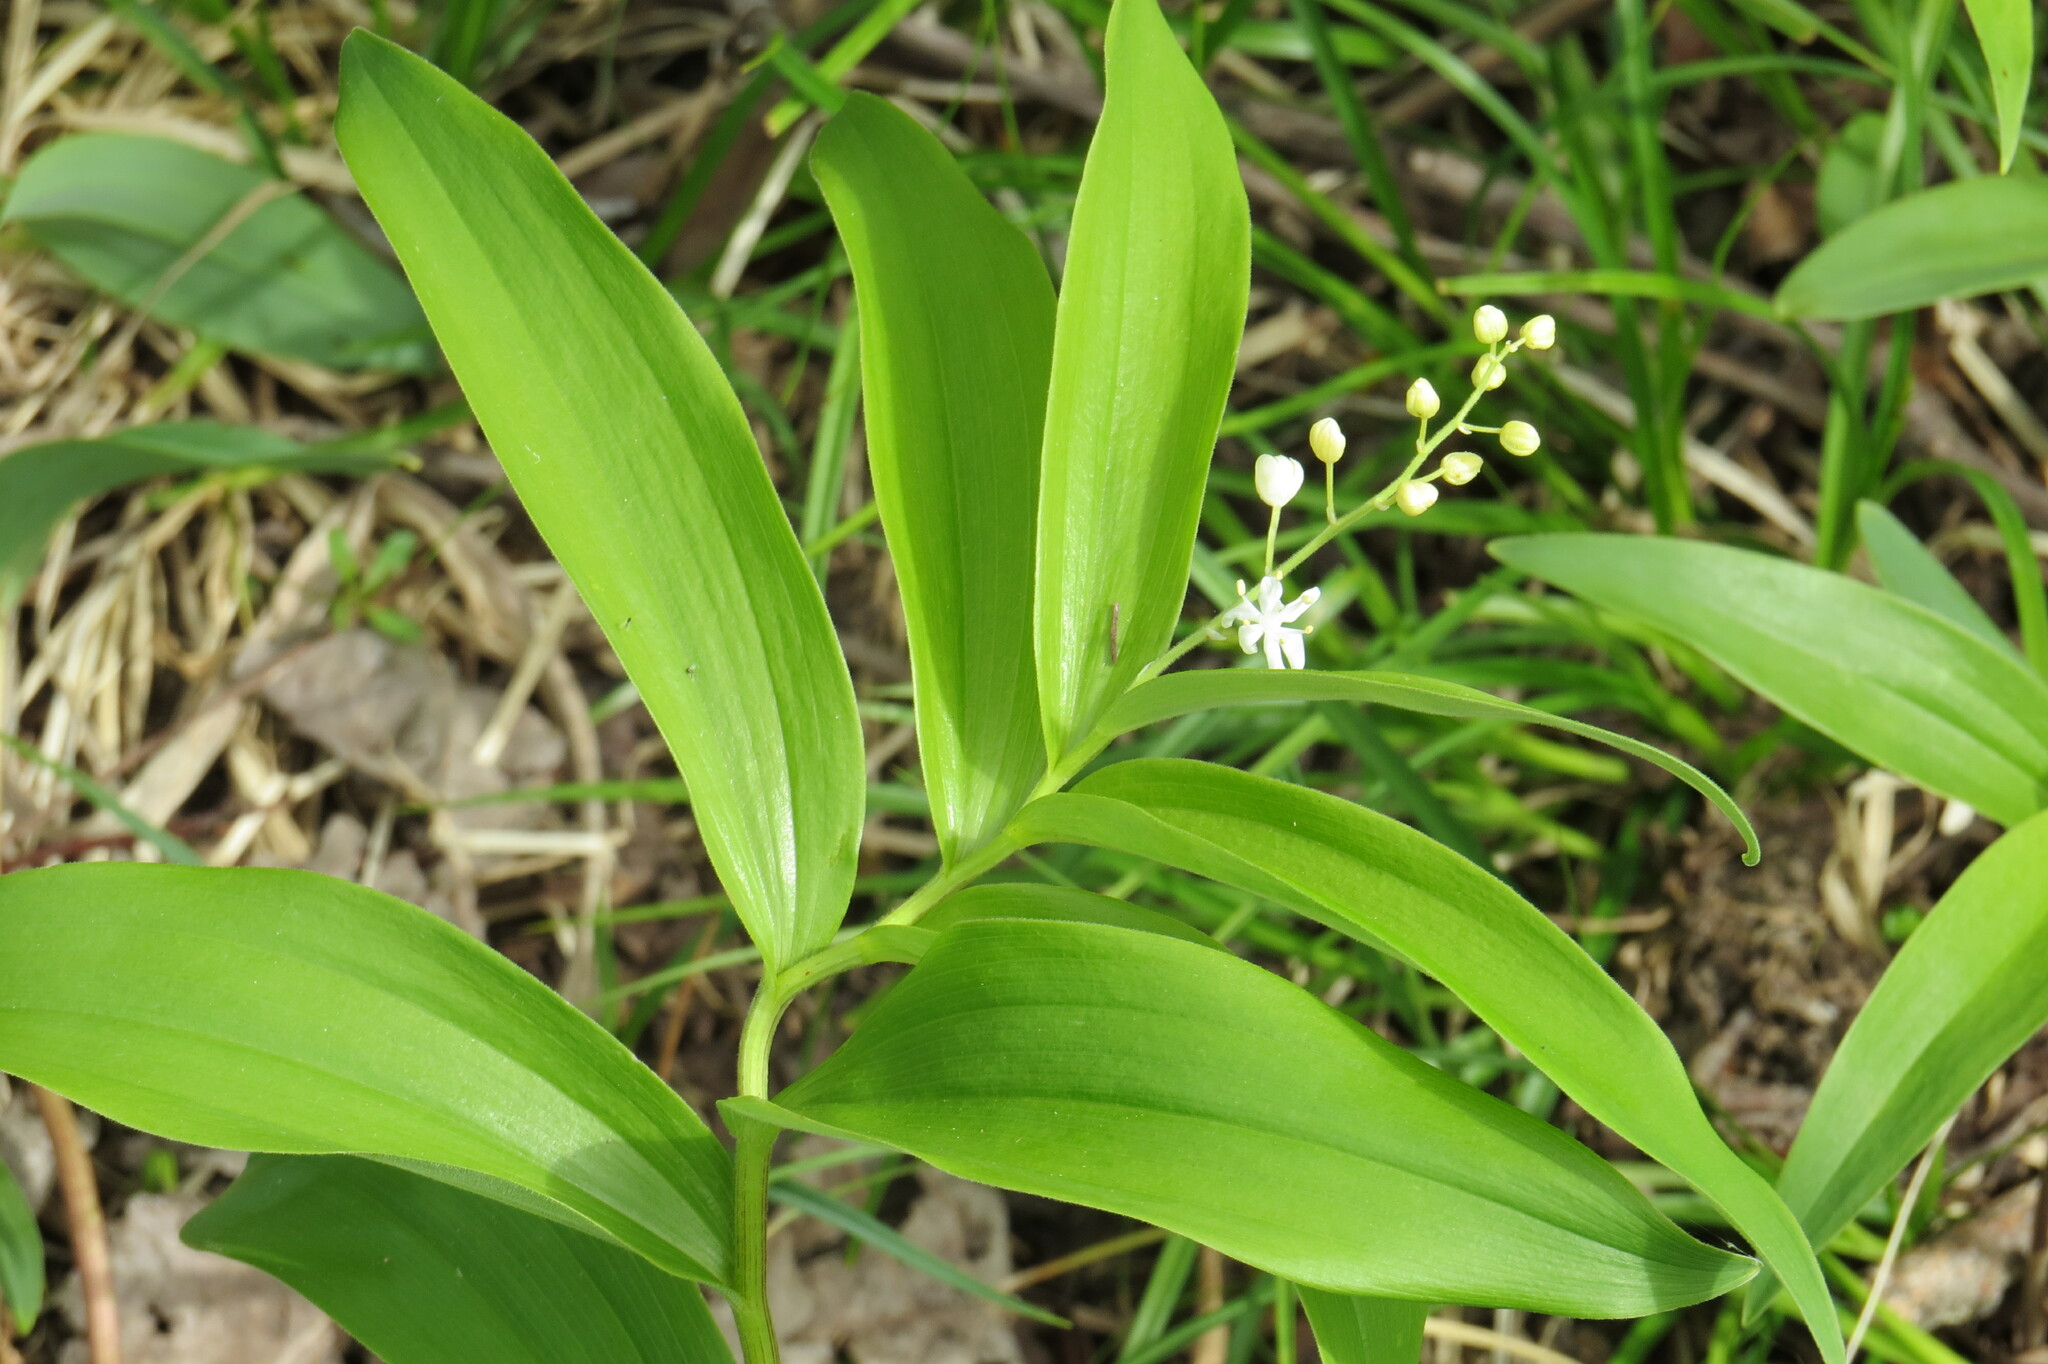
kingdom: Plantae
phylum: Tracheophyta
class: Liliopsida
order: Asparagales
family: Asparagaceae
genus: Maianthemum
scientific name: Maianthemum stellatum
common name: Little false solomon's seal
